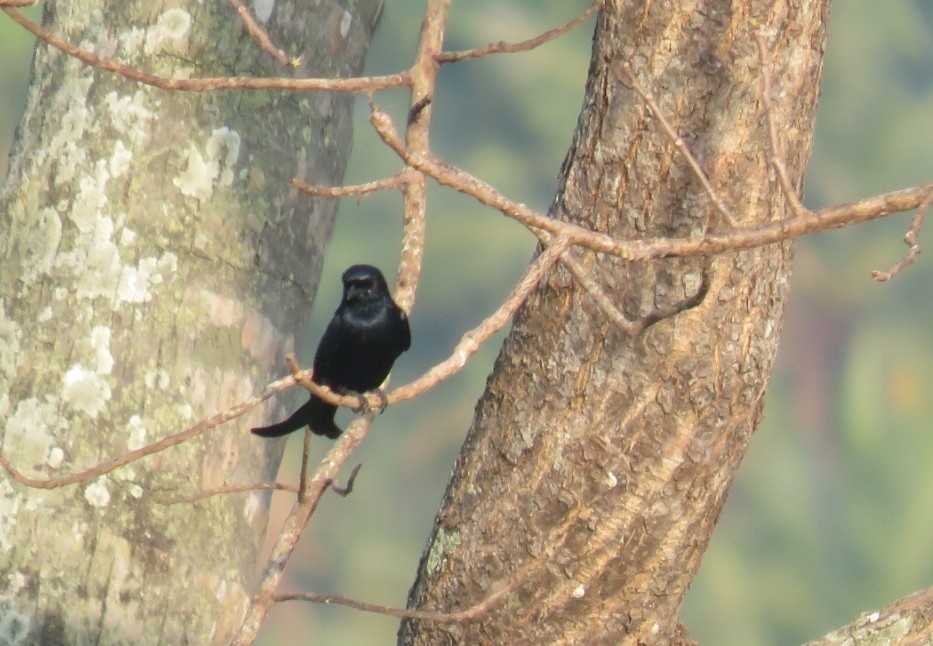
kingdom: Animalia
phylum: Chordata
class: Aves
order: Passeriformes
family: Dicruridae
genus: Dicrurus
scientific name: Dicrurus macrocercus
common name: Black drongo
